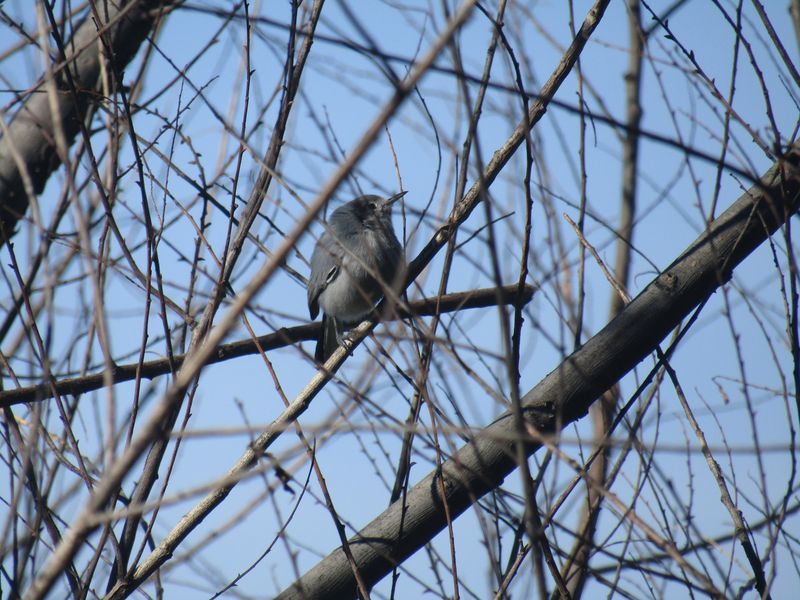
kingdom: Animalia
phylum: Chordata
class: Aves
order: Passeriformes
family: Polioptilidae
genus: Polioptila
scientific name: Polioptila dumicola
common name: Masked gnatcatcher
